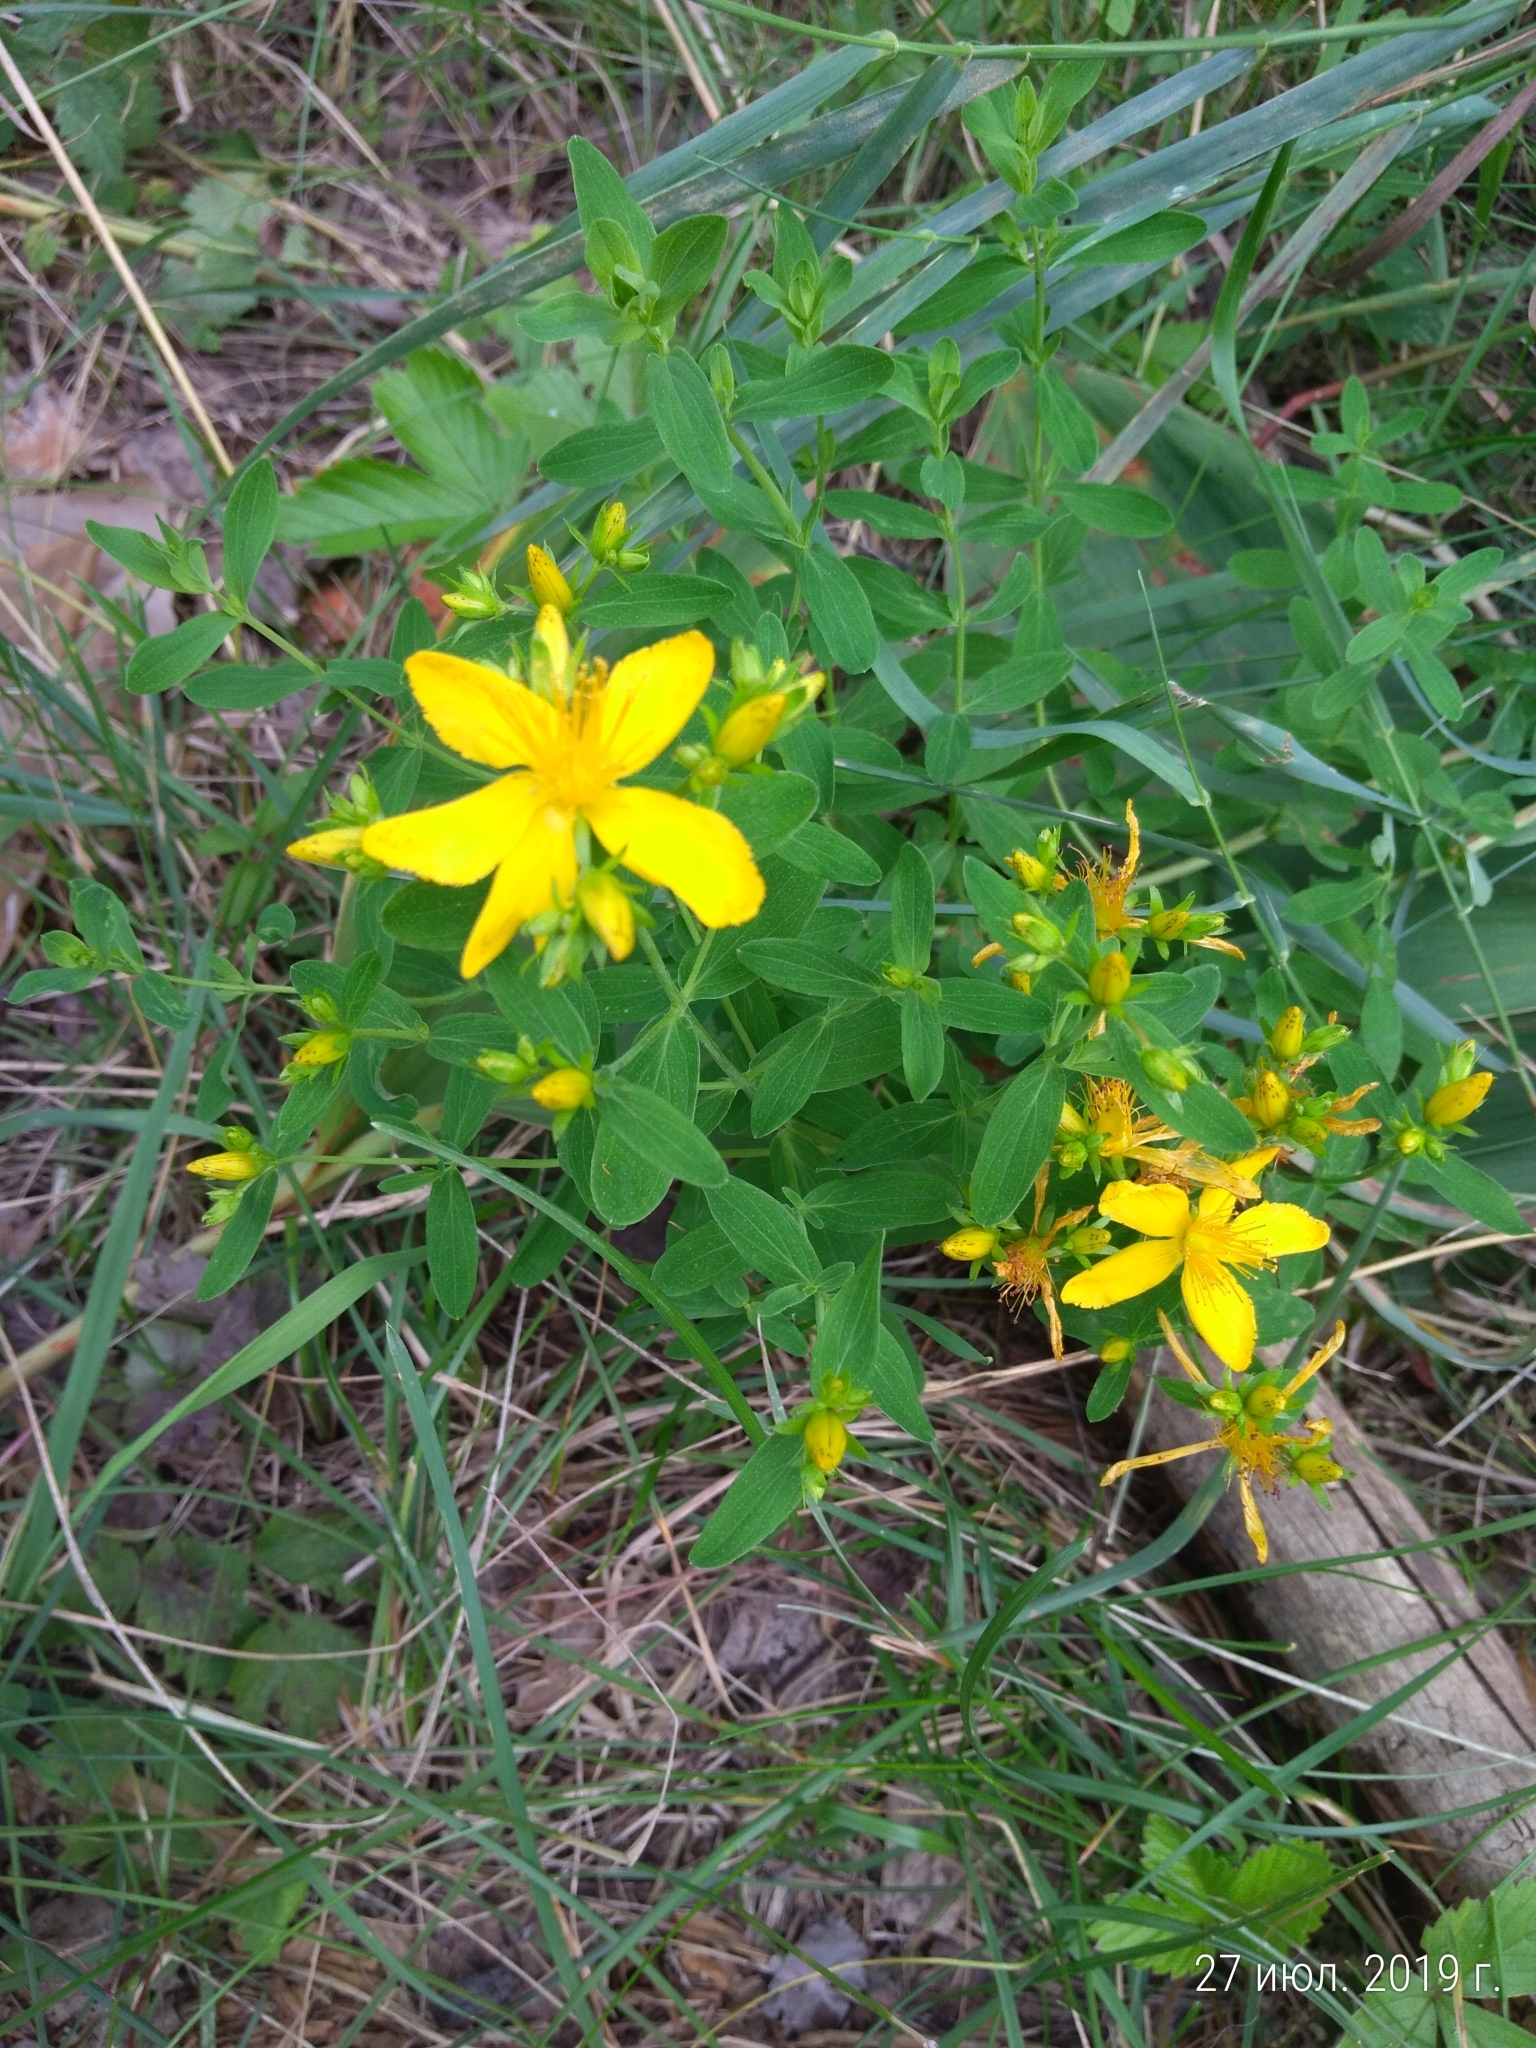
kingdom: Plantae
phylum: Tracheophyta
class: Magnoliopsida
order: Malpighiales
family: Hypericaceae
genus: Hypericum
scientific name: Hypericum perforatum
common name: Common st. johnswort
